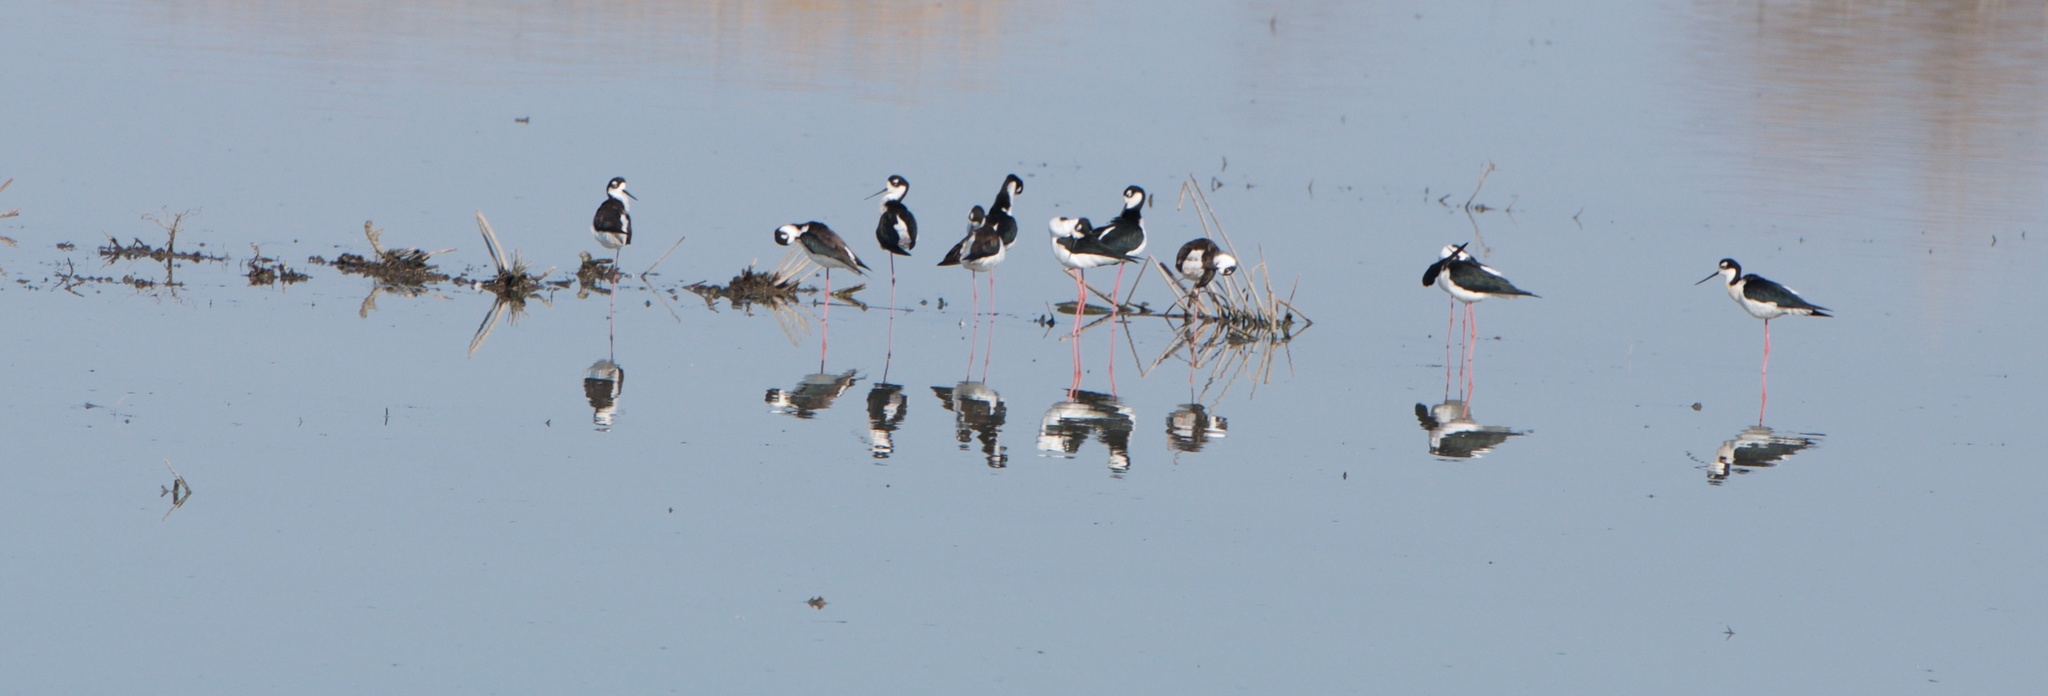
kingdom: Animalia
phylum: Chordata
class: Aves
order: Charadriiformes
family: Recurvirostridae
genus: Himantopus
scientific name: Himantopus mexicanus
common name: Black-necked stilt
